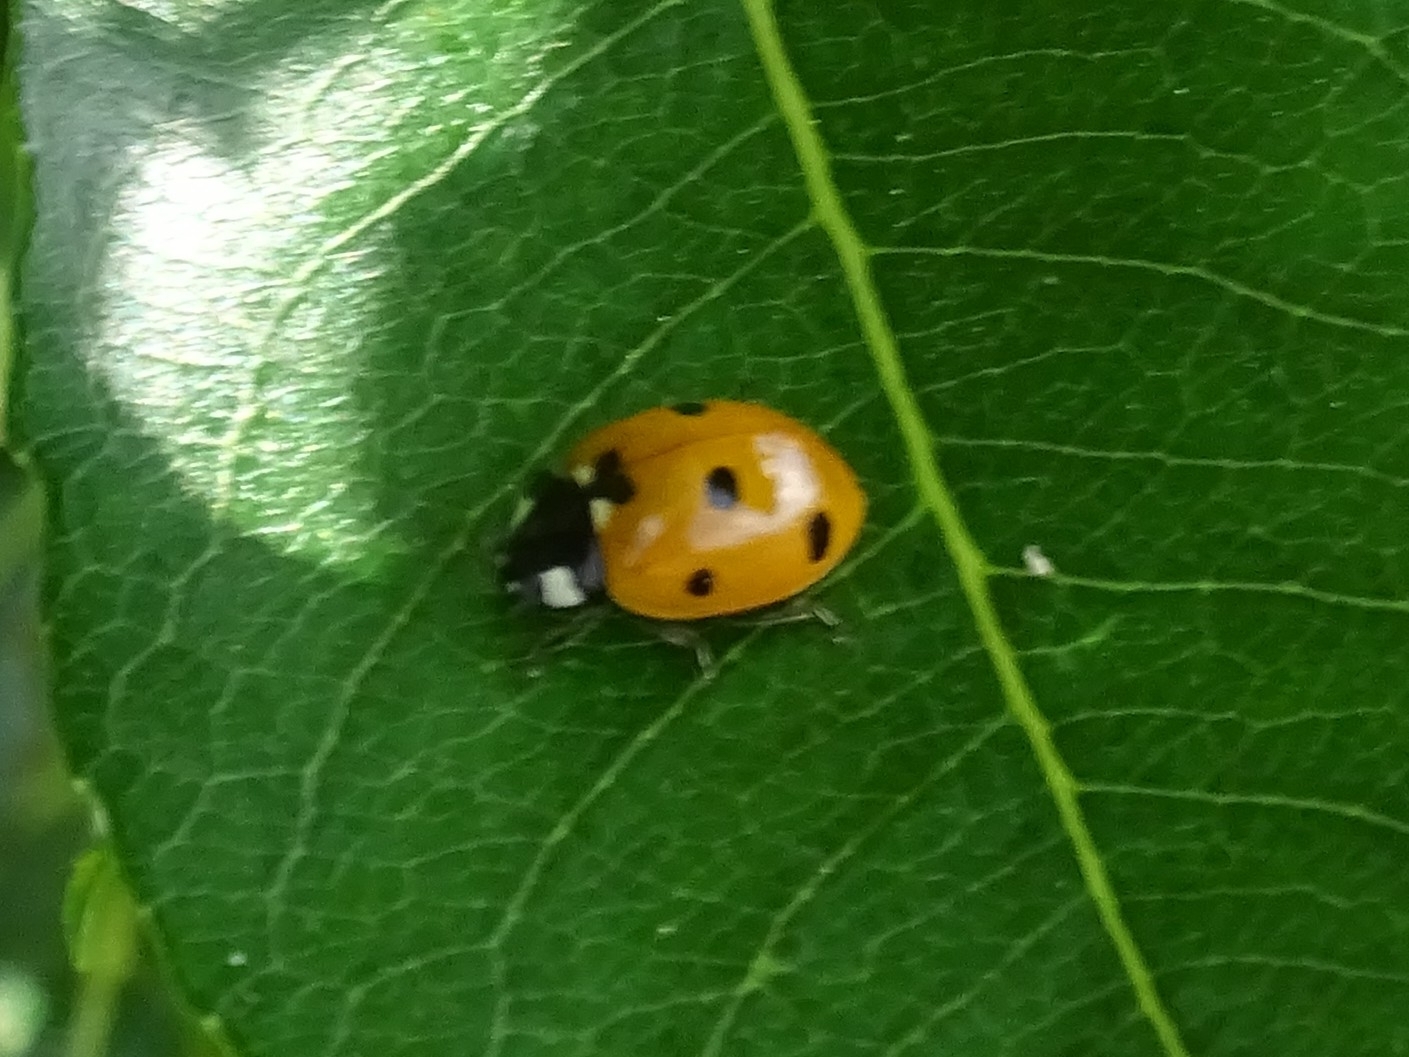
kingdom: Animalia
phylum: Arthropoda
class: Insecta
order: Coleoptera
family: Coccinellidae
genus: Coccinella
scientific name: Coccinella septempunctata
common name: Sevenspotted lady beetle
